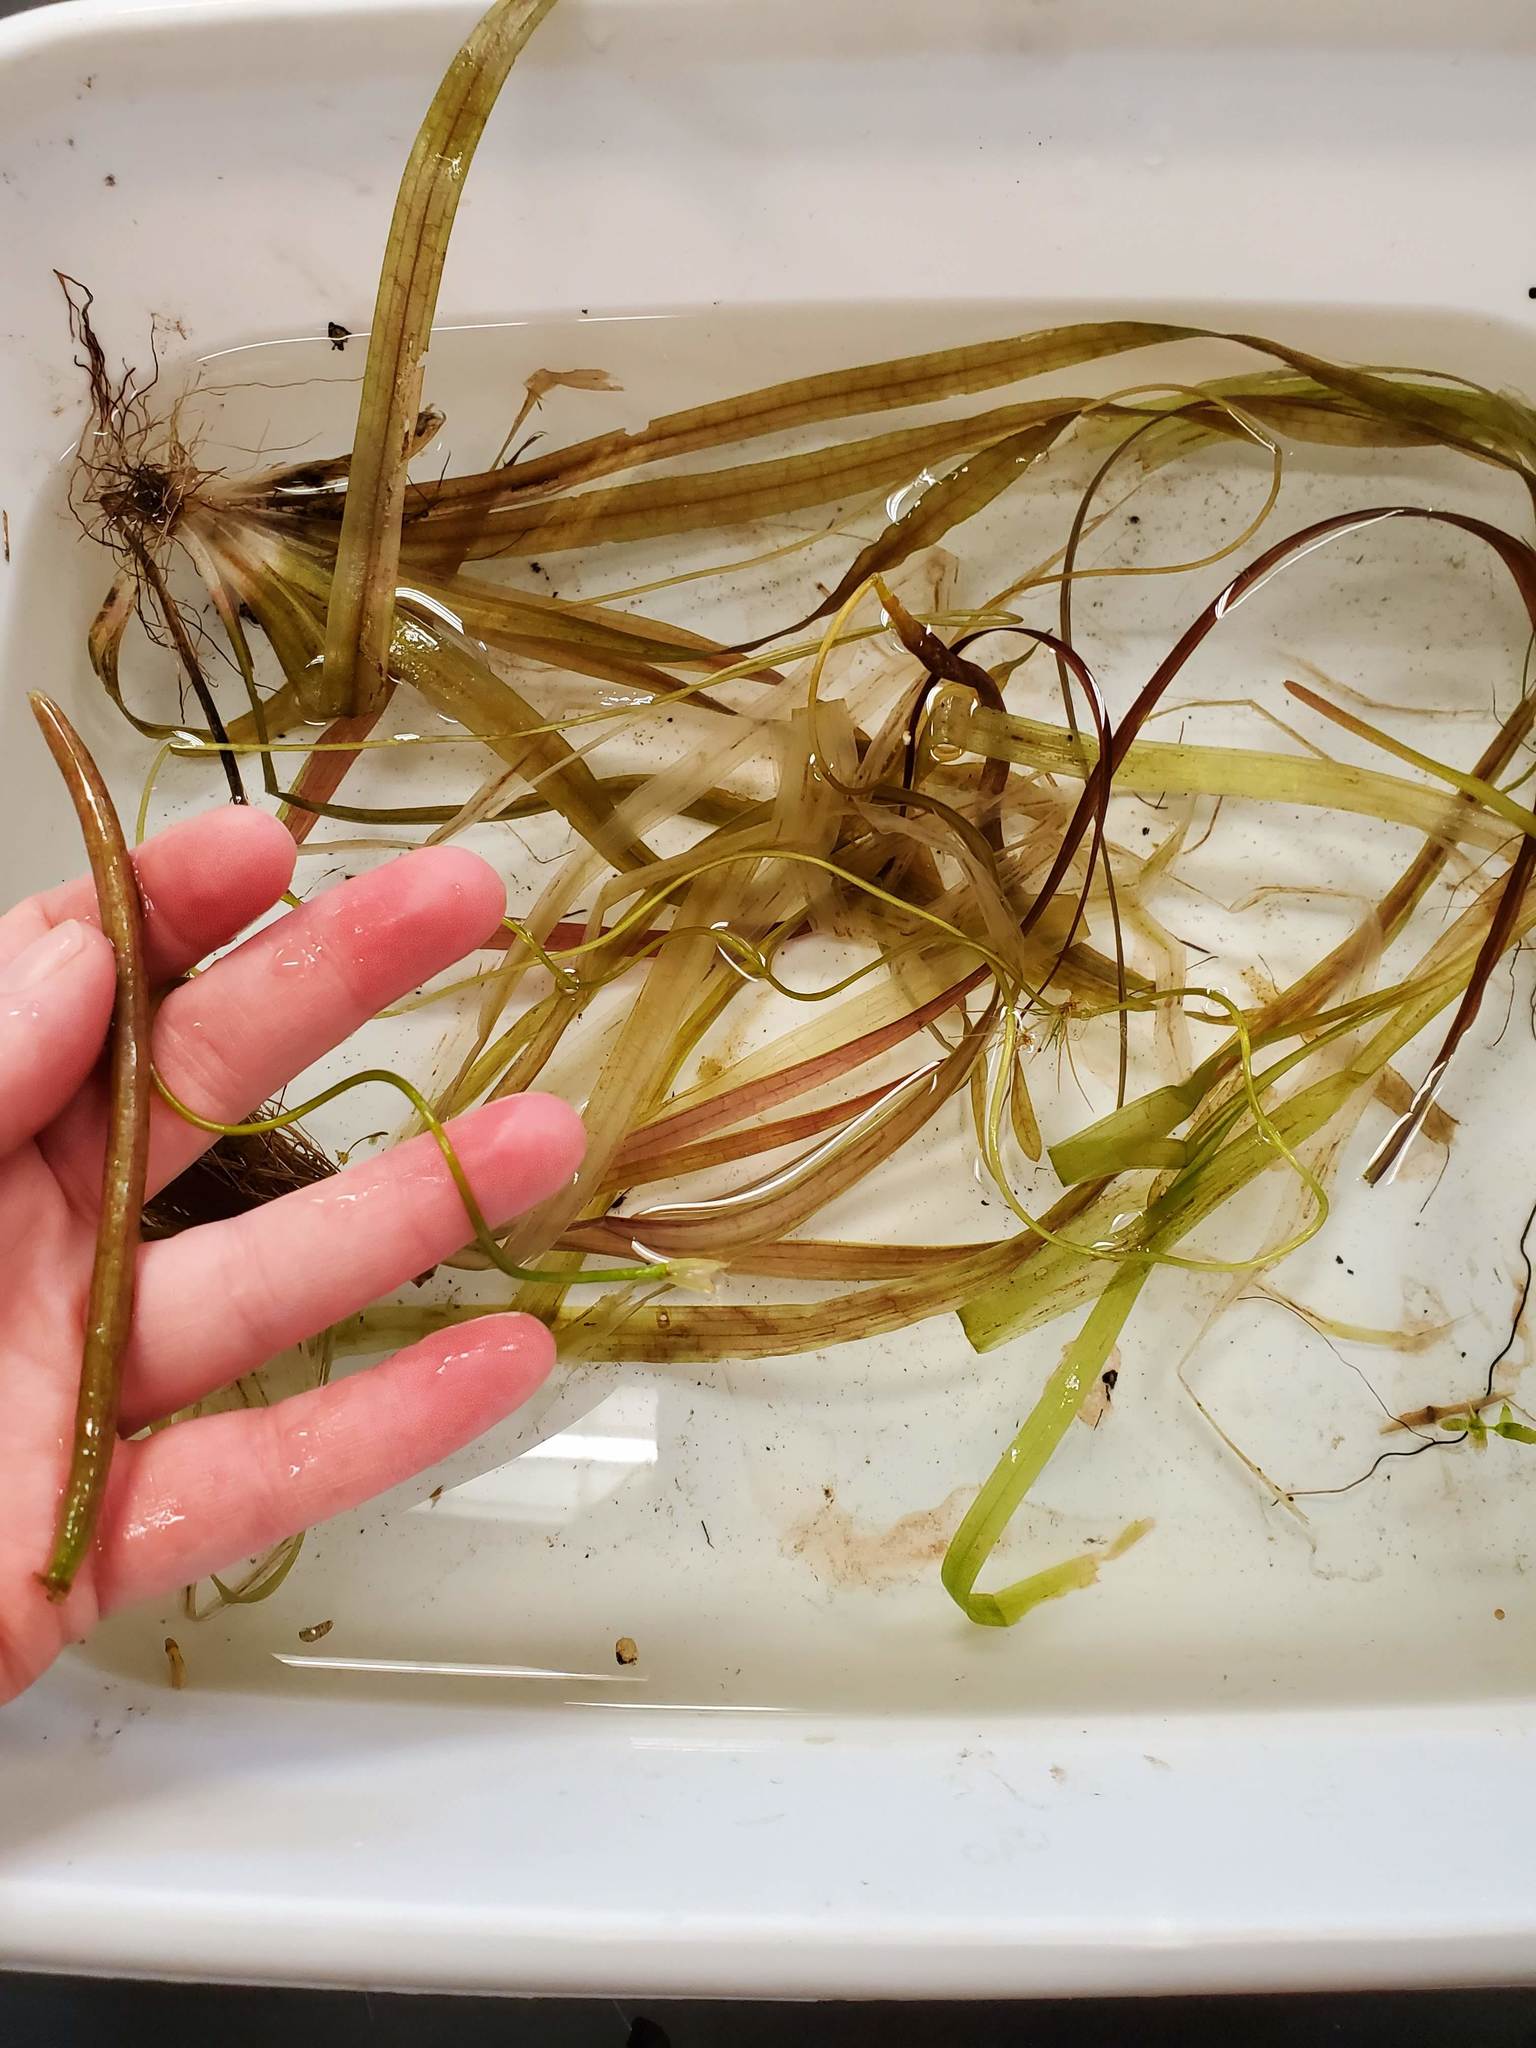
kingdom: Plantae
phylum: Tracheophyta
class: Liliopsida
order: Alismatales
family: Hydrocharitaceae
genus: Vallisneria
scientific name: Vallisneria americana
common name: American eelgrass
